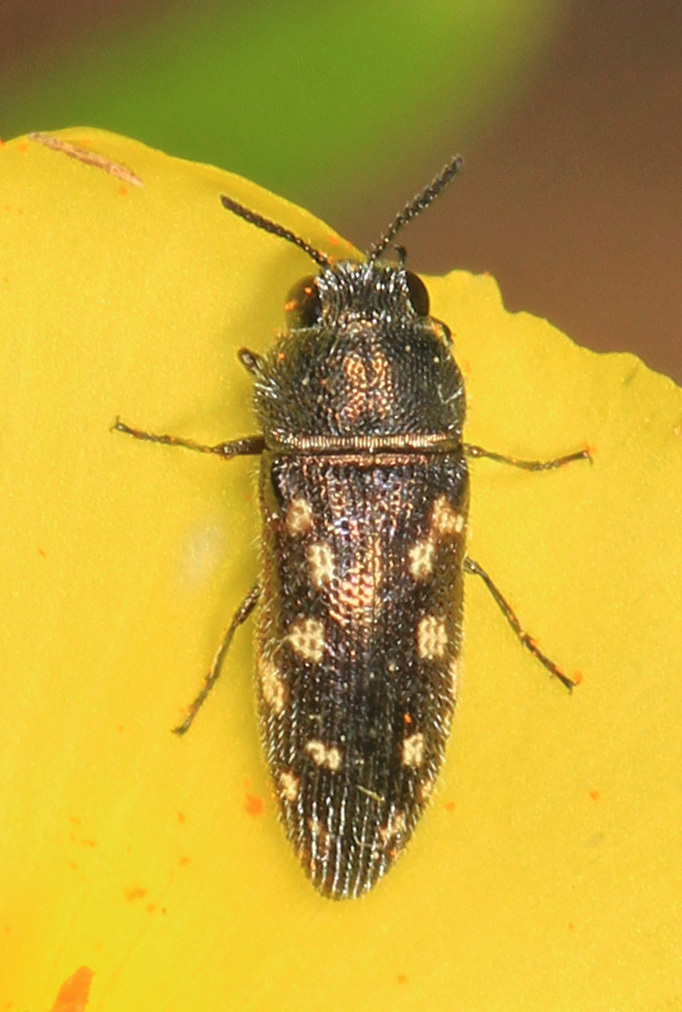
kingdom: Animalia
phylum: Arthropoda
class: Insecta
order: Coleoptera
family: Buprestidae
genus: Acmaeodera
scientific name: Acmaeodera tubulus
